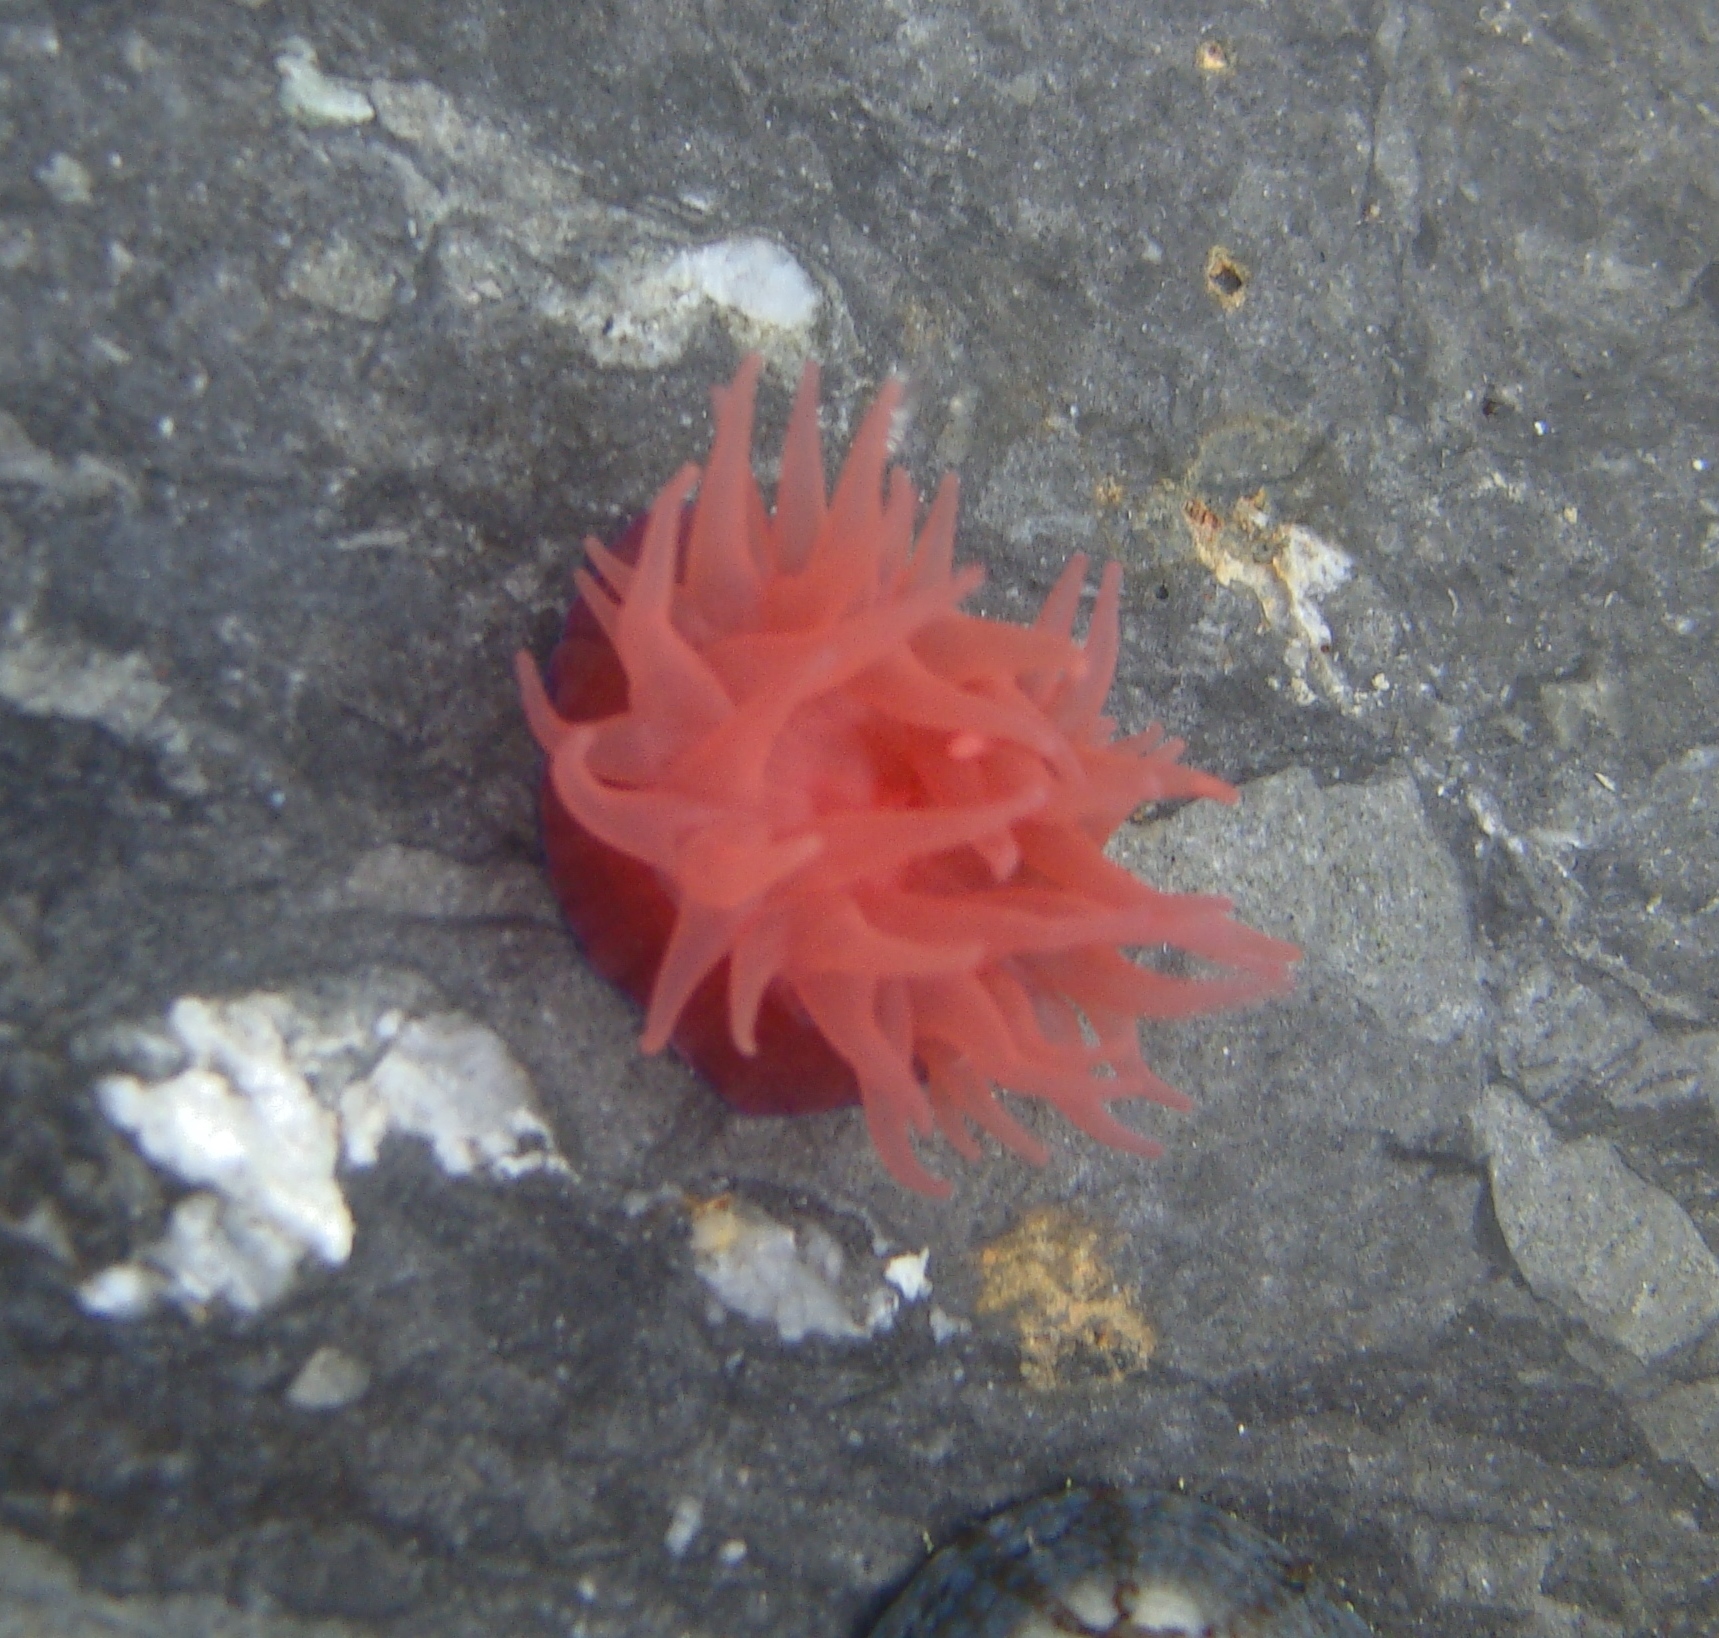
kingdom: Animalia
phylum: Cnidaria
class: Anthozoa
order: Actiniaria
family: Actiniidae
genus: Actinia
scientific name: Actinia tenebrosa
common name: Waratah anemone
